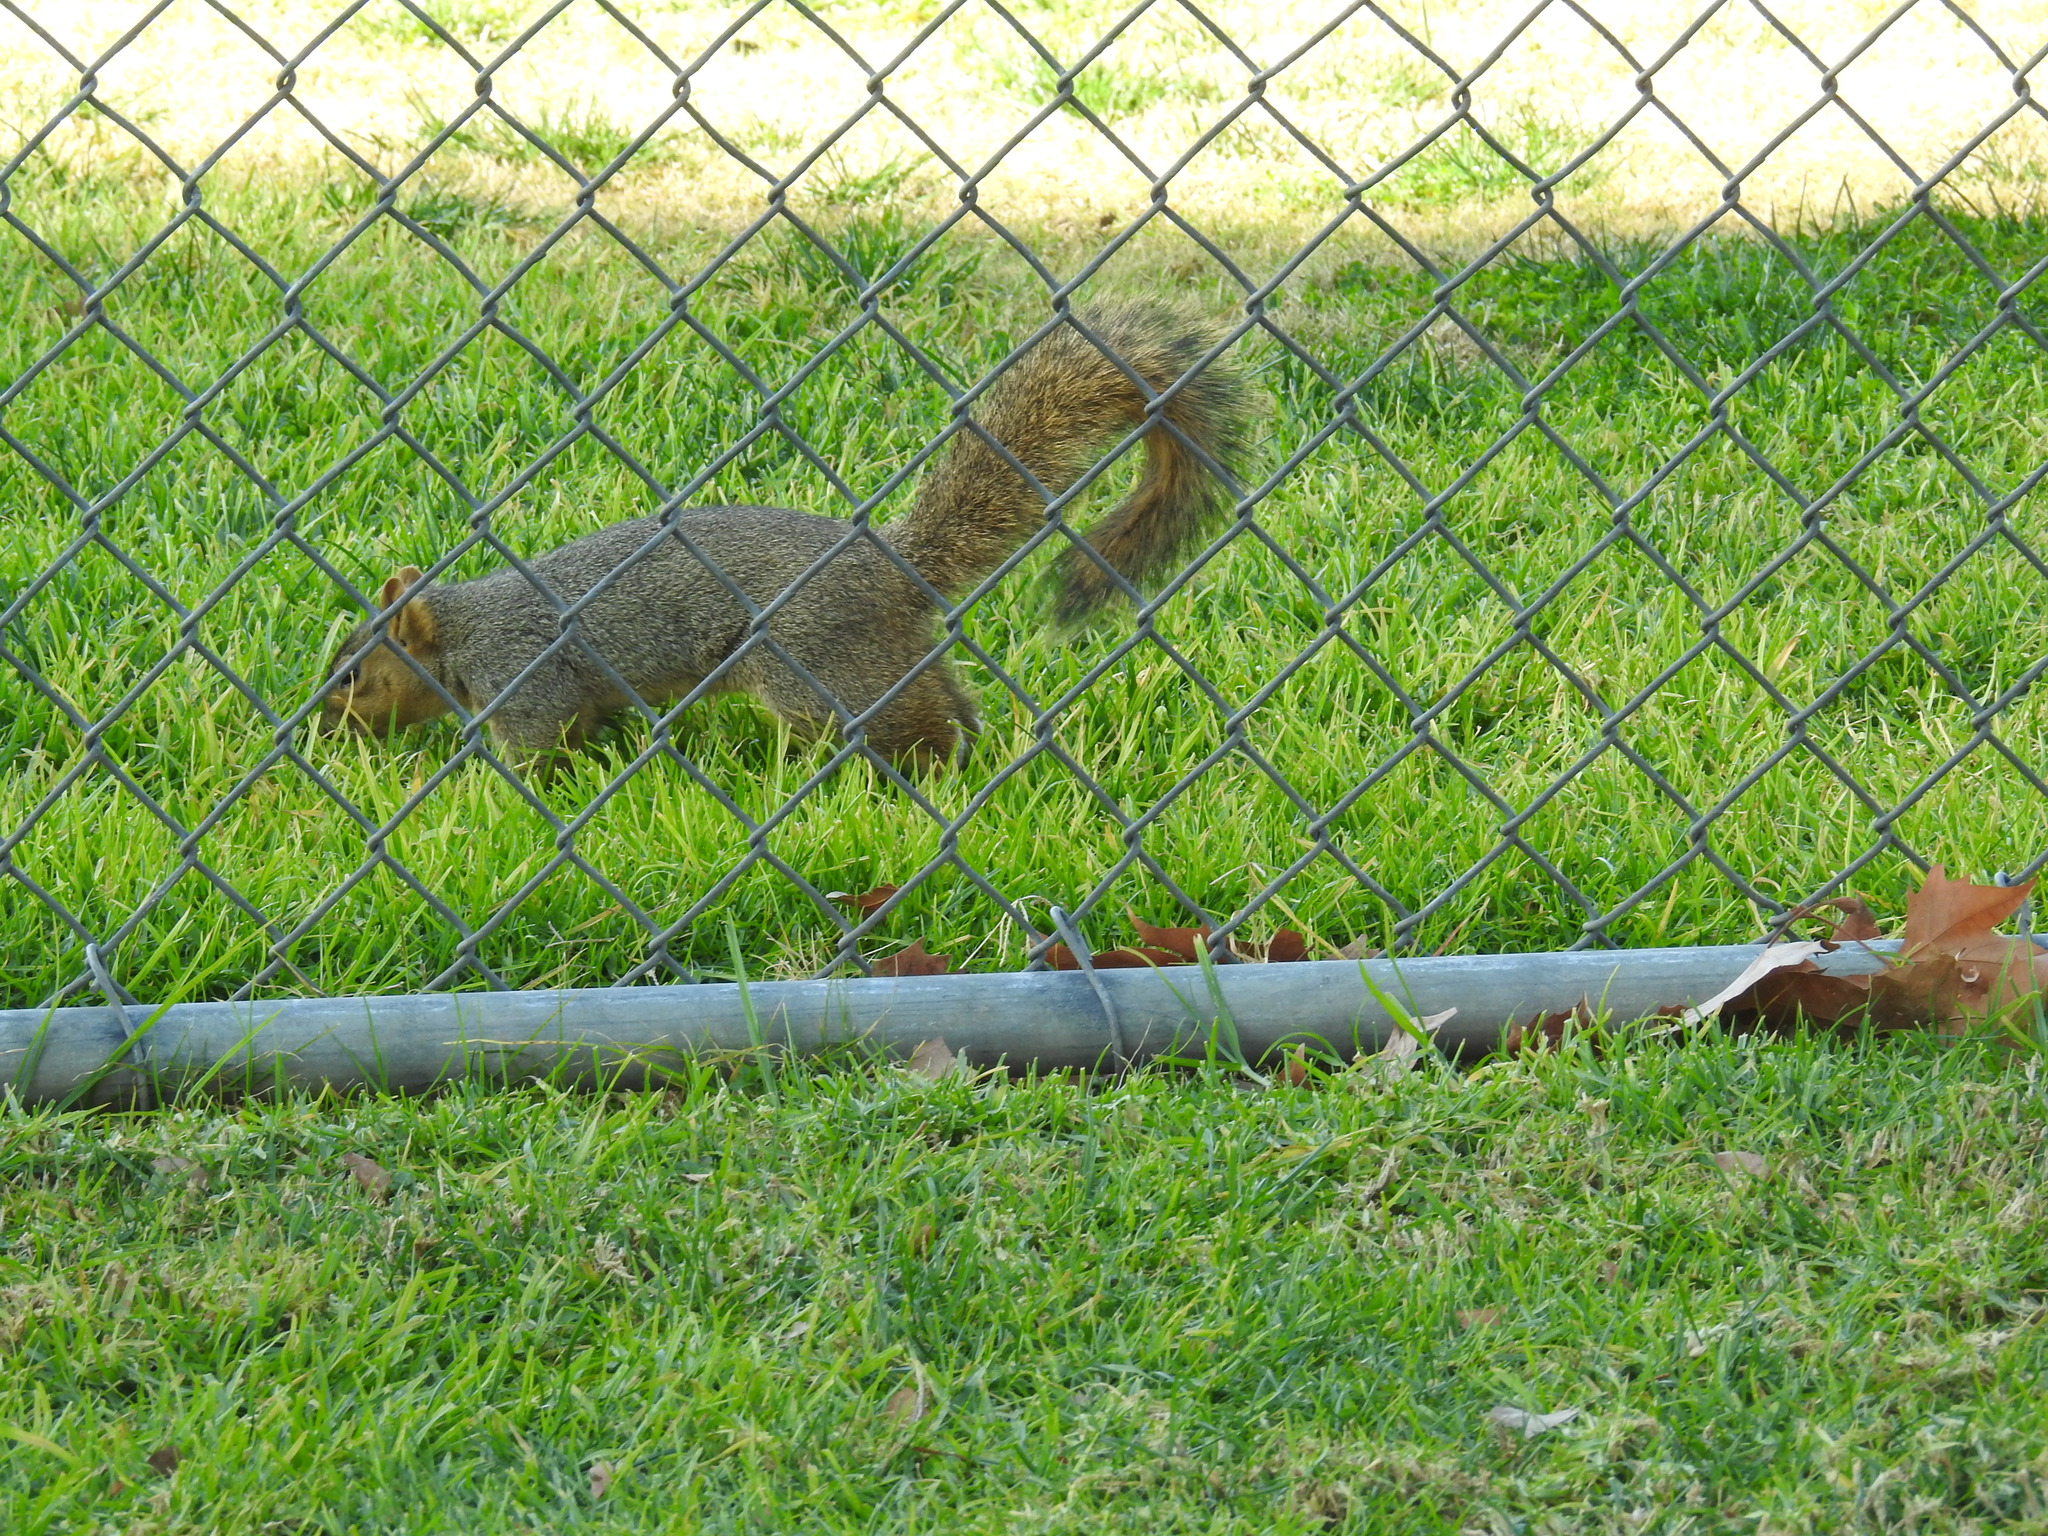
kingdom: Animalia
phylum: Chordata
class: Mammalia
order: Rodentia
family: Sciuridae
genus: Sciurus
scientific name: Sciurus niger
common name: Fox squirrel
